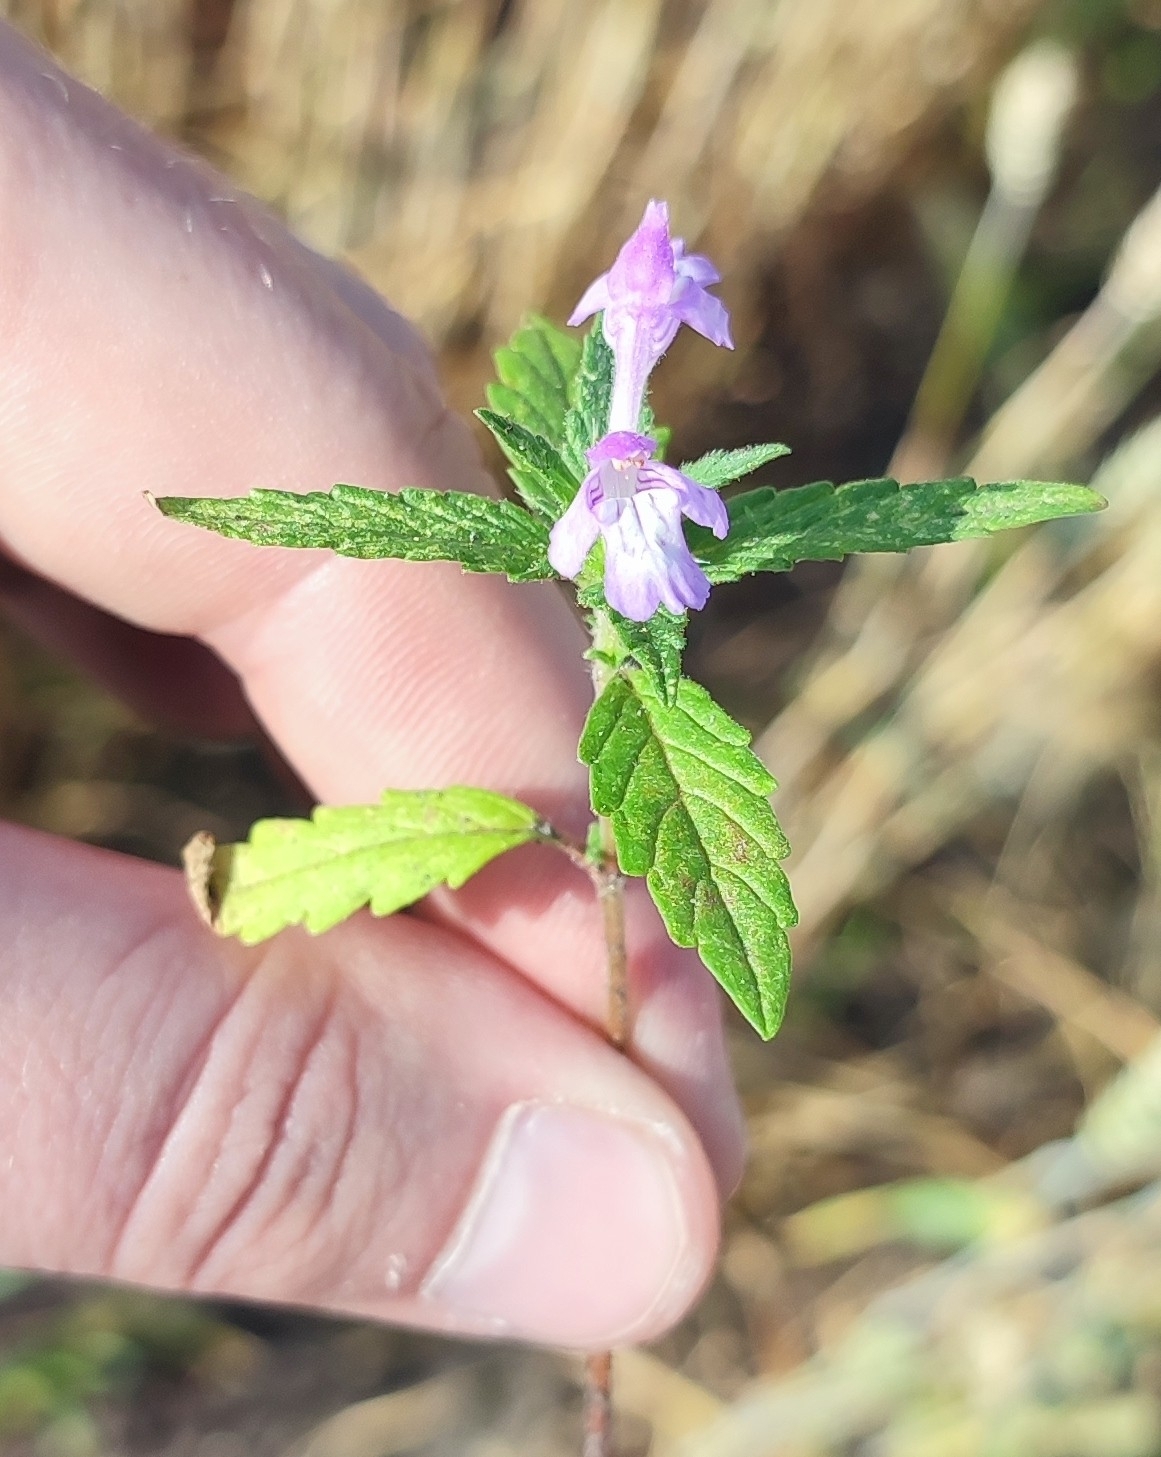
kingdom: Plantae
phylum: Tracheophyta
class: Magnoliopsida
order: Lamiales
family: Lamiaceae
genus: Galeopsis
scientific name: Galeopsis ladanum
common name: Broad-leaved hemp-nettle
